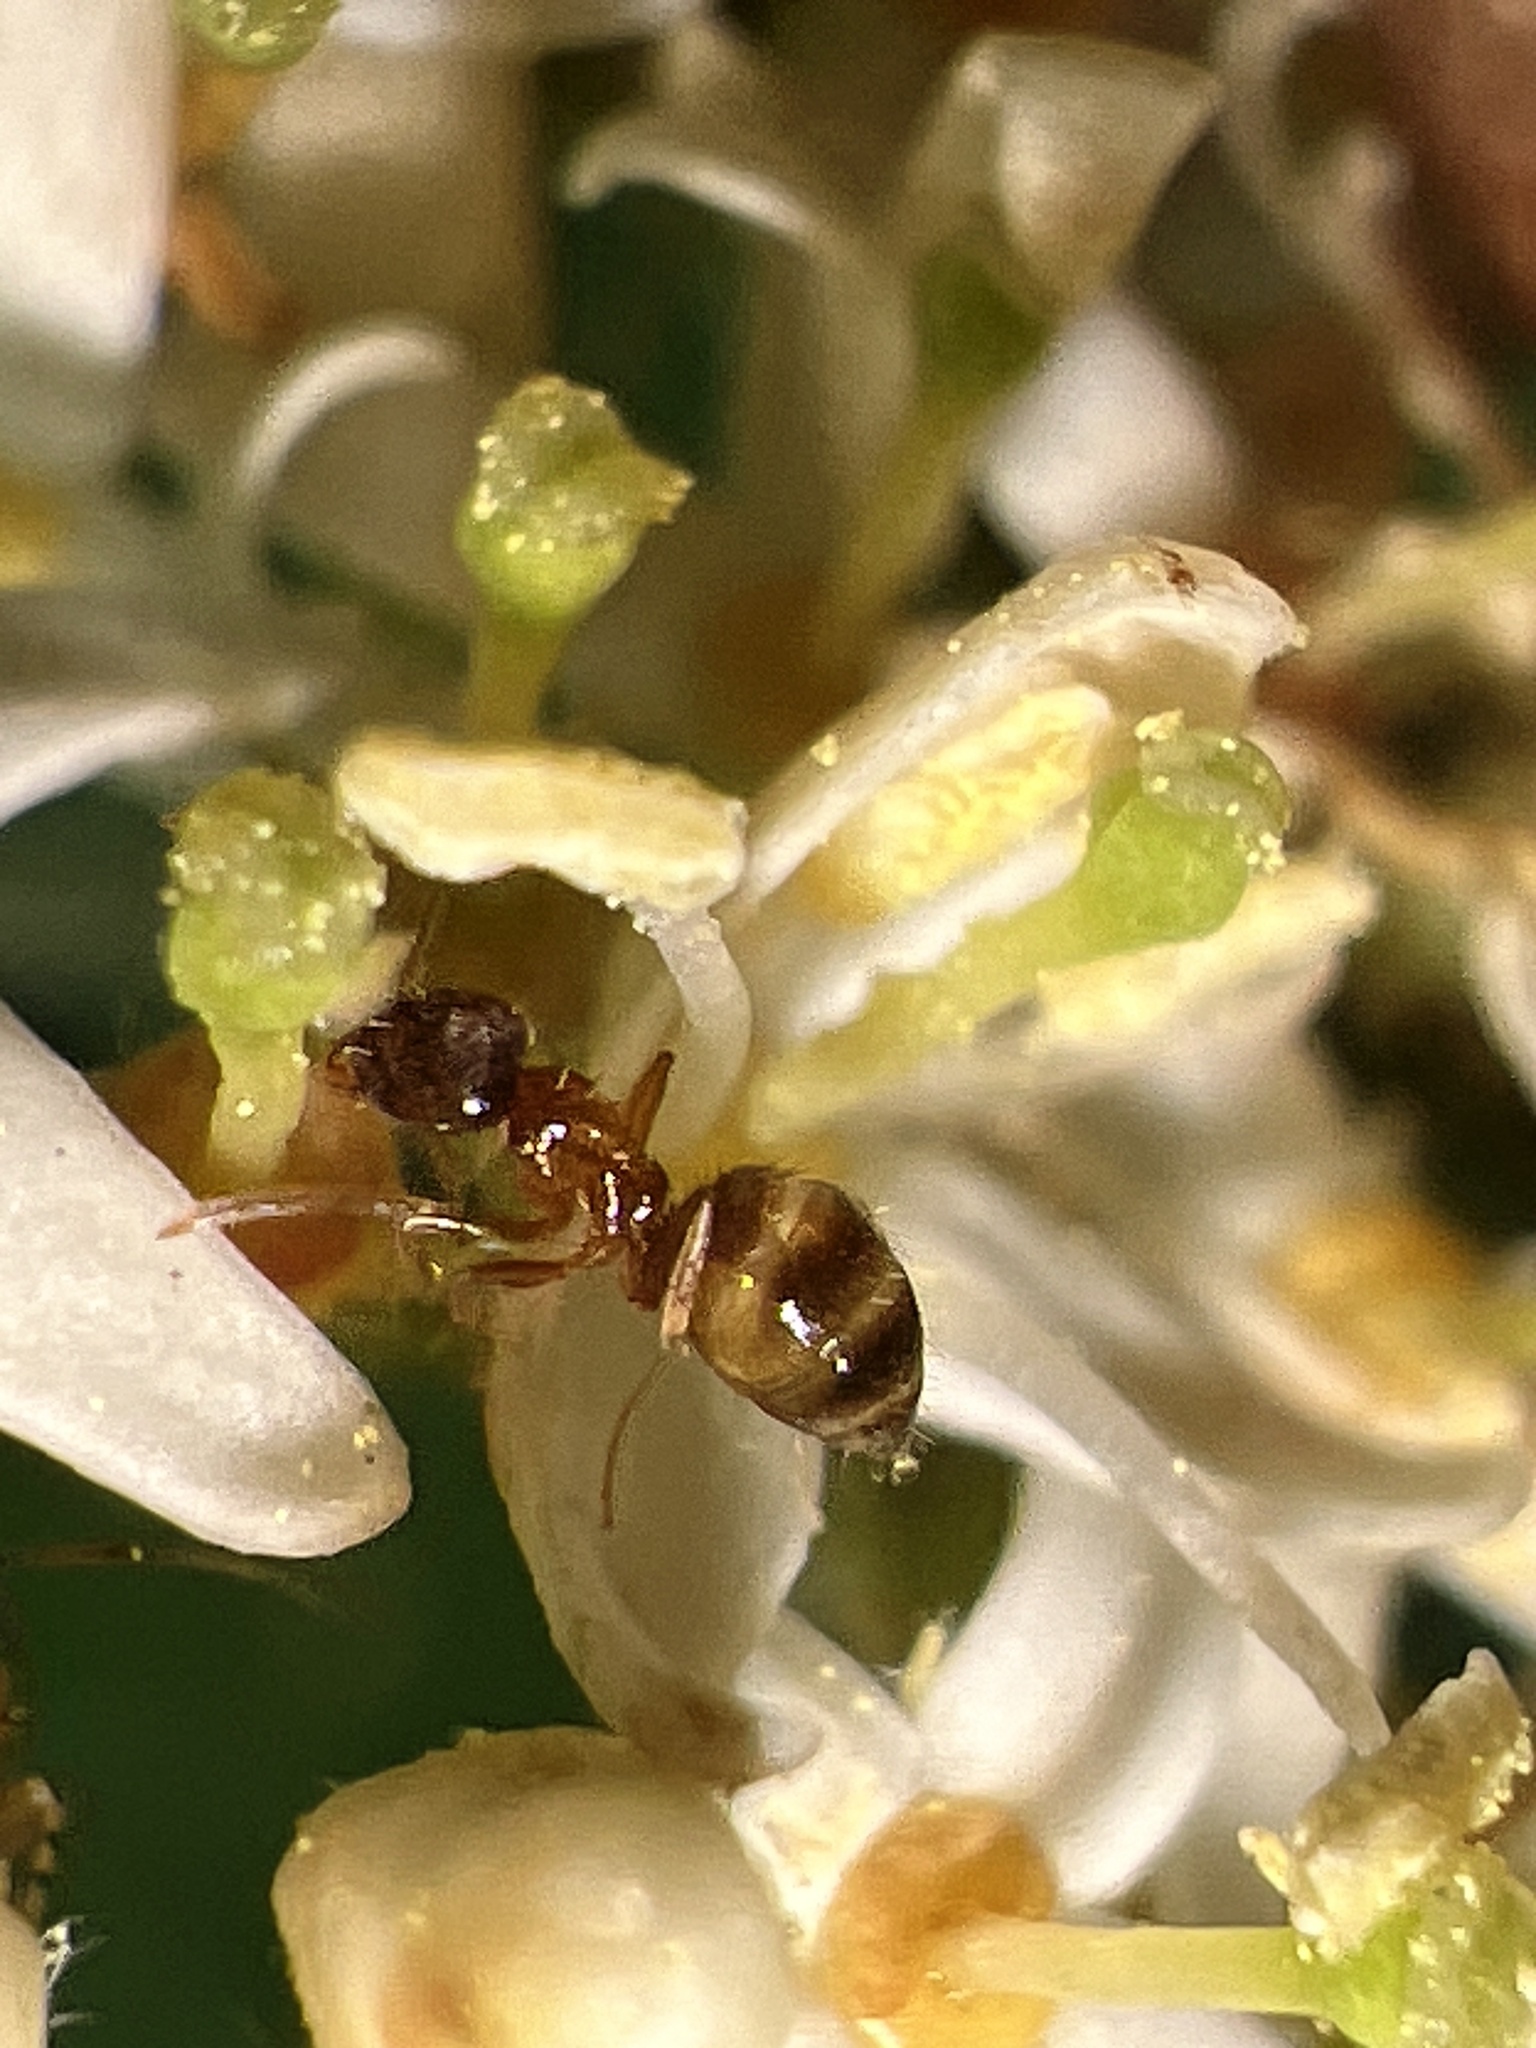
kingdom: Animalia
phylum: Arthropoda
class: Insecta
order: Hymenoptera
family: Formicidae
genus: Paratrechina
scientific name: Paratrechina flavipes
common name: Eastern asian formicine ant
